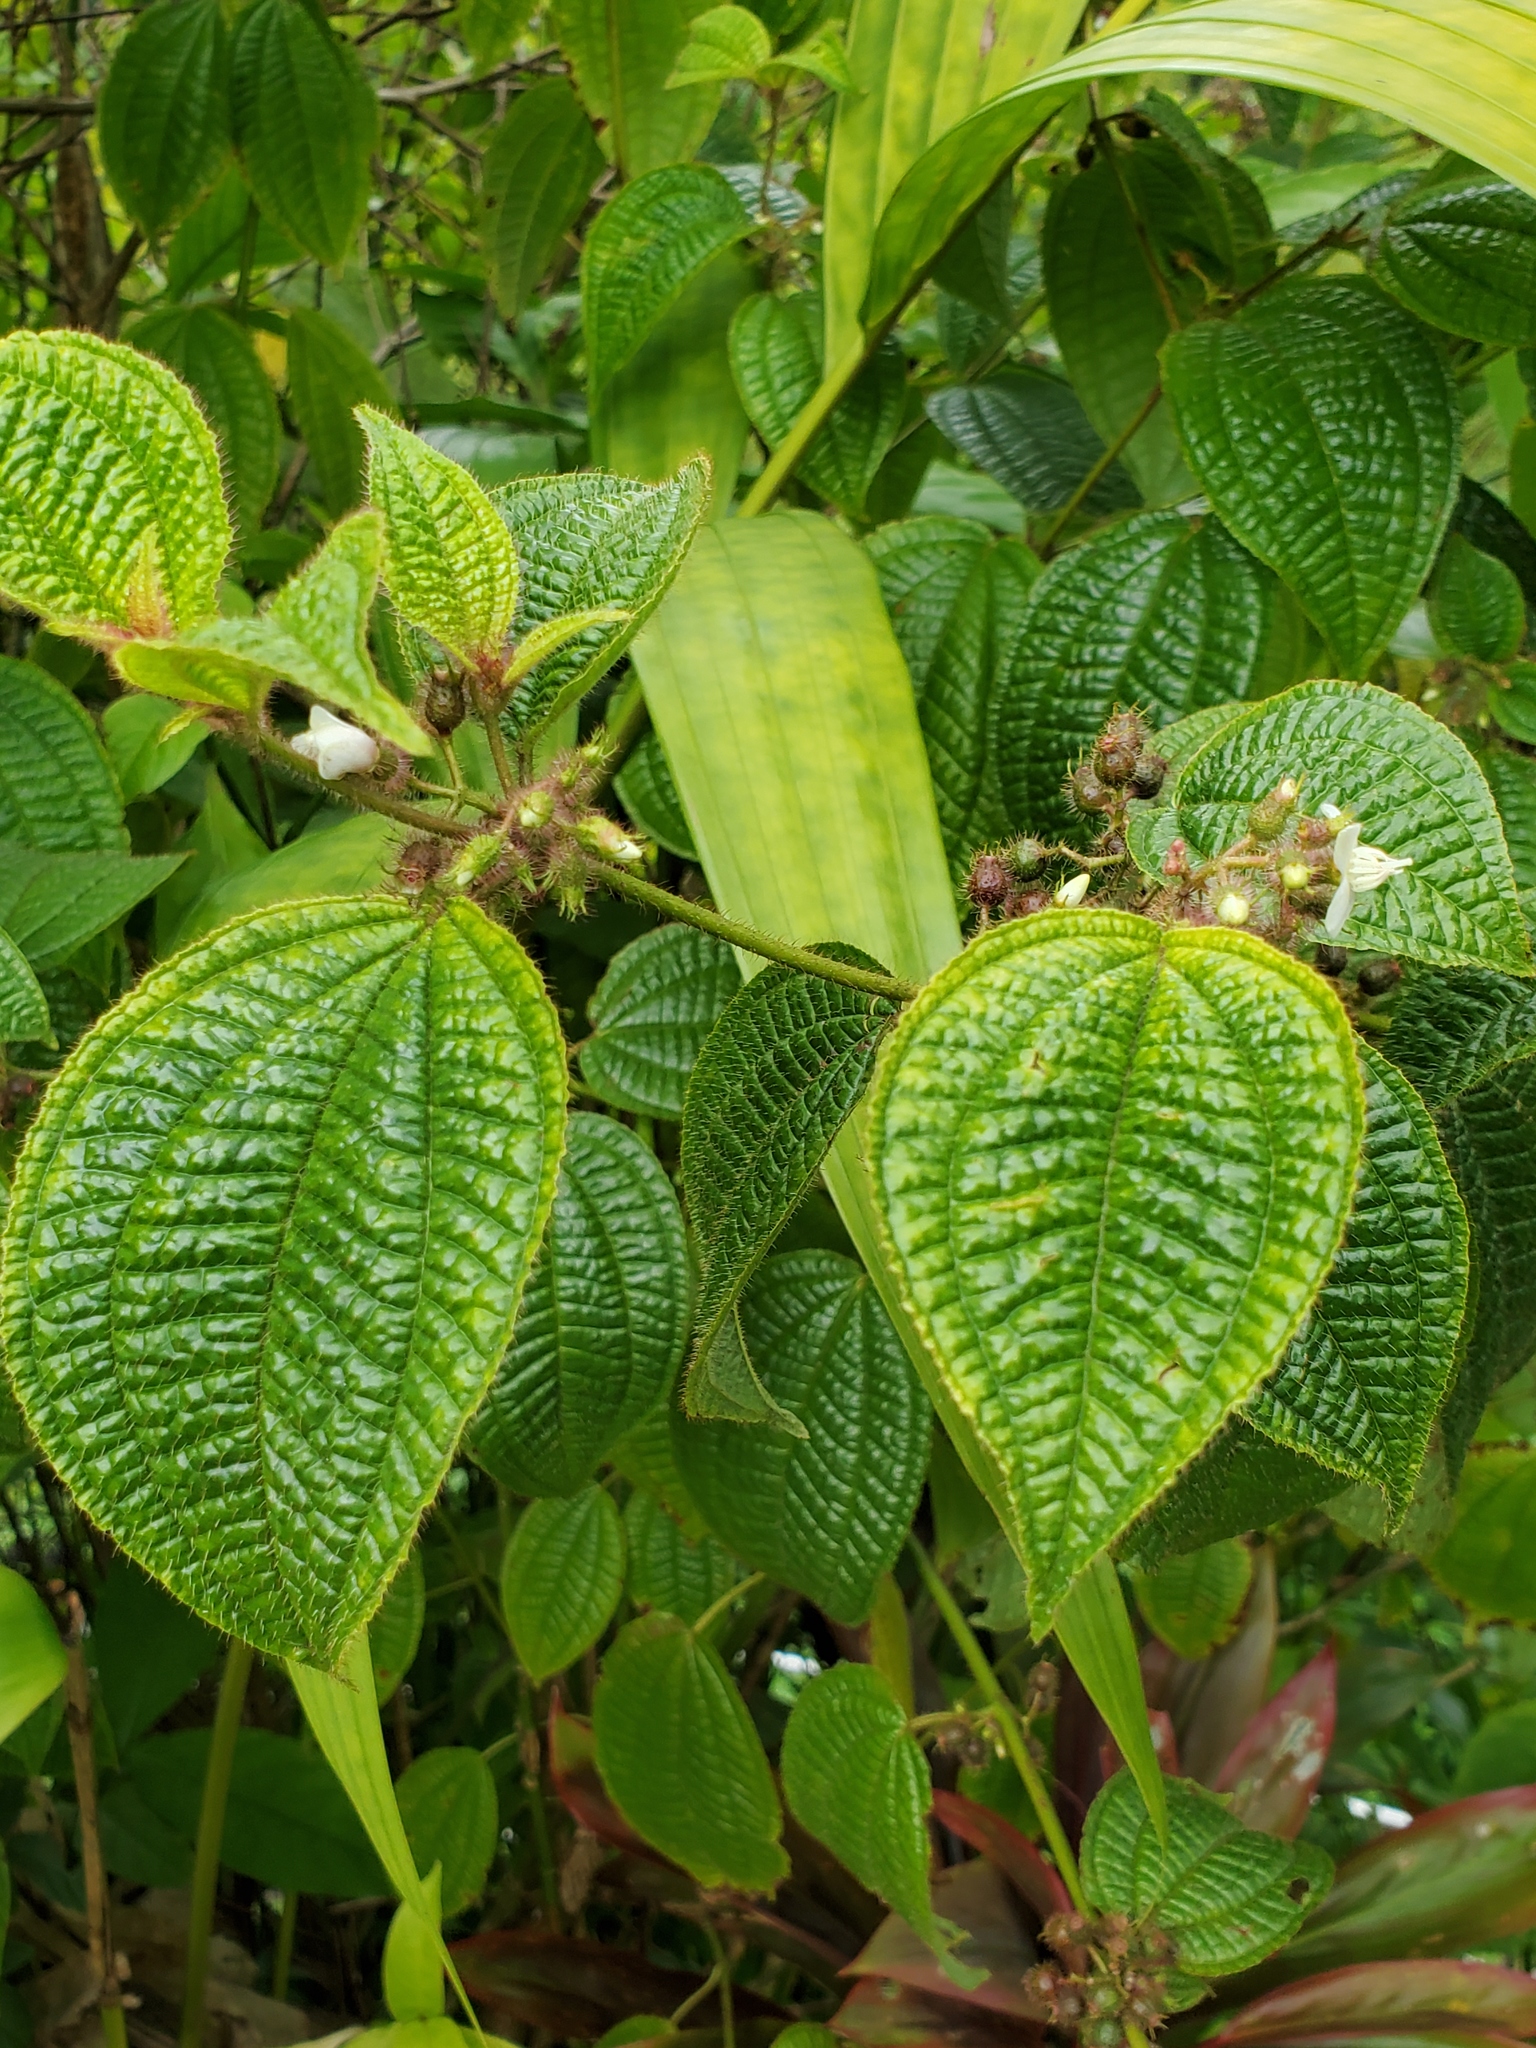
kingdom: Plantae
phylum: Tracheophyta
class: Magnoliopsida
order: Myrtales
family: Melastomataceae
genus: Miconia
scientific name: Miconia crenata
